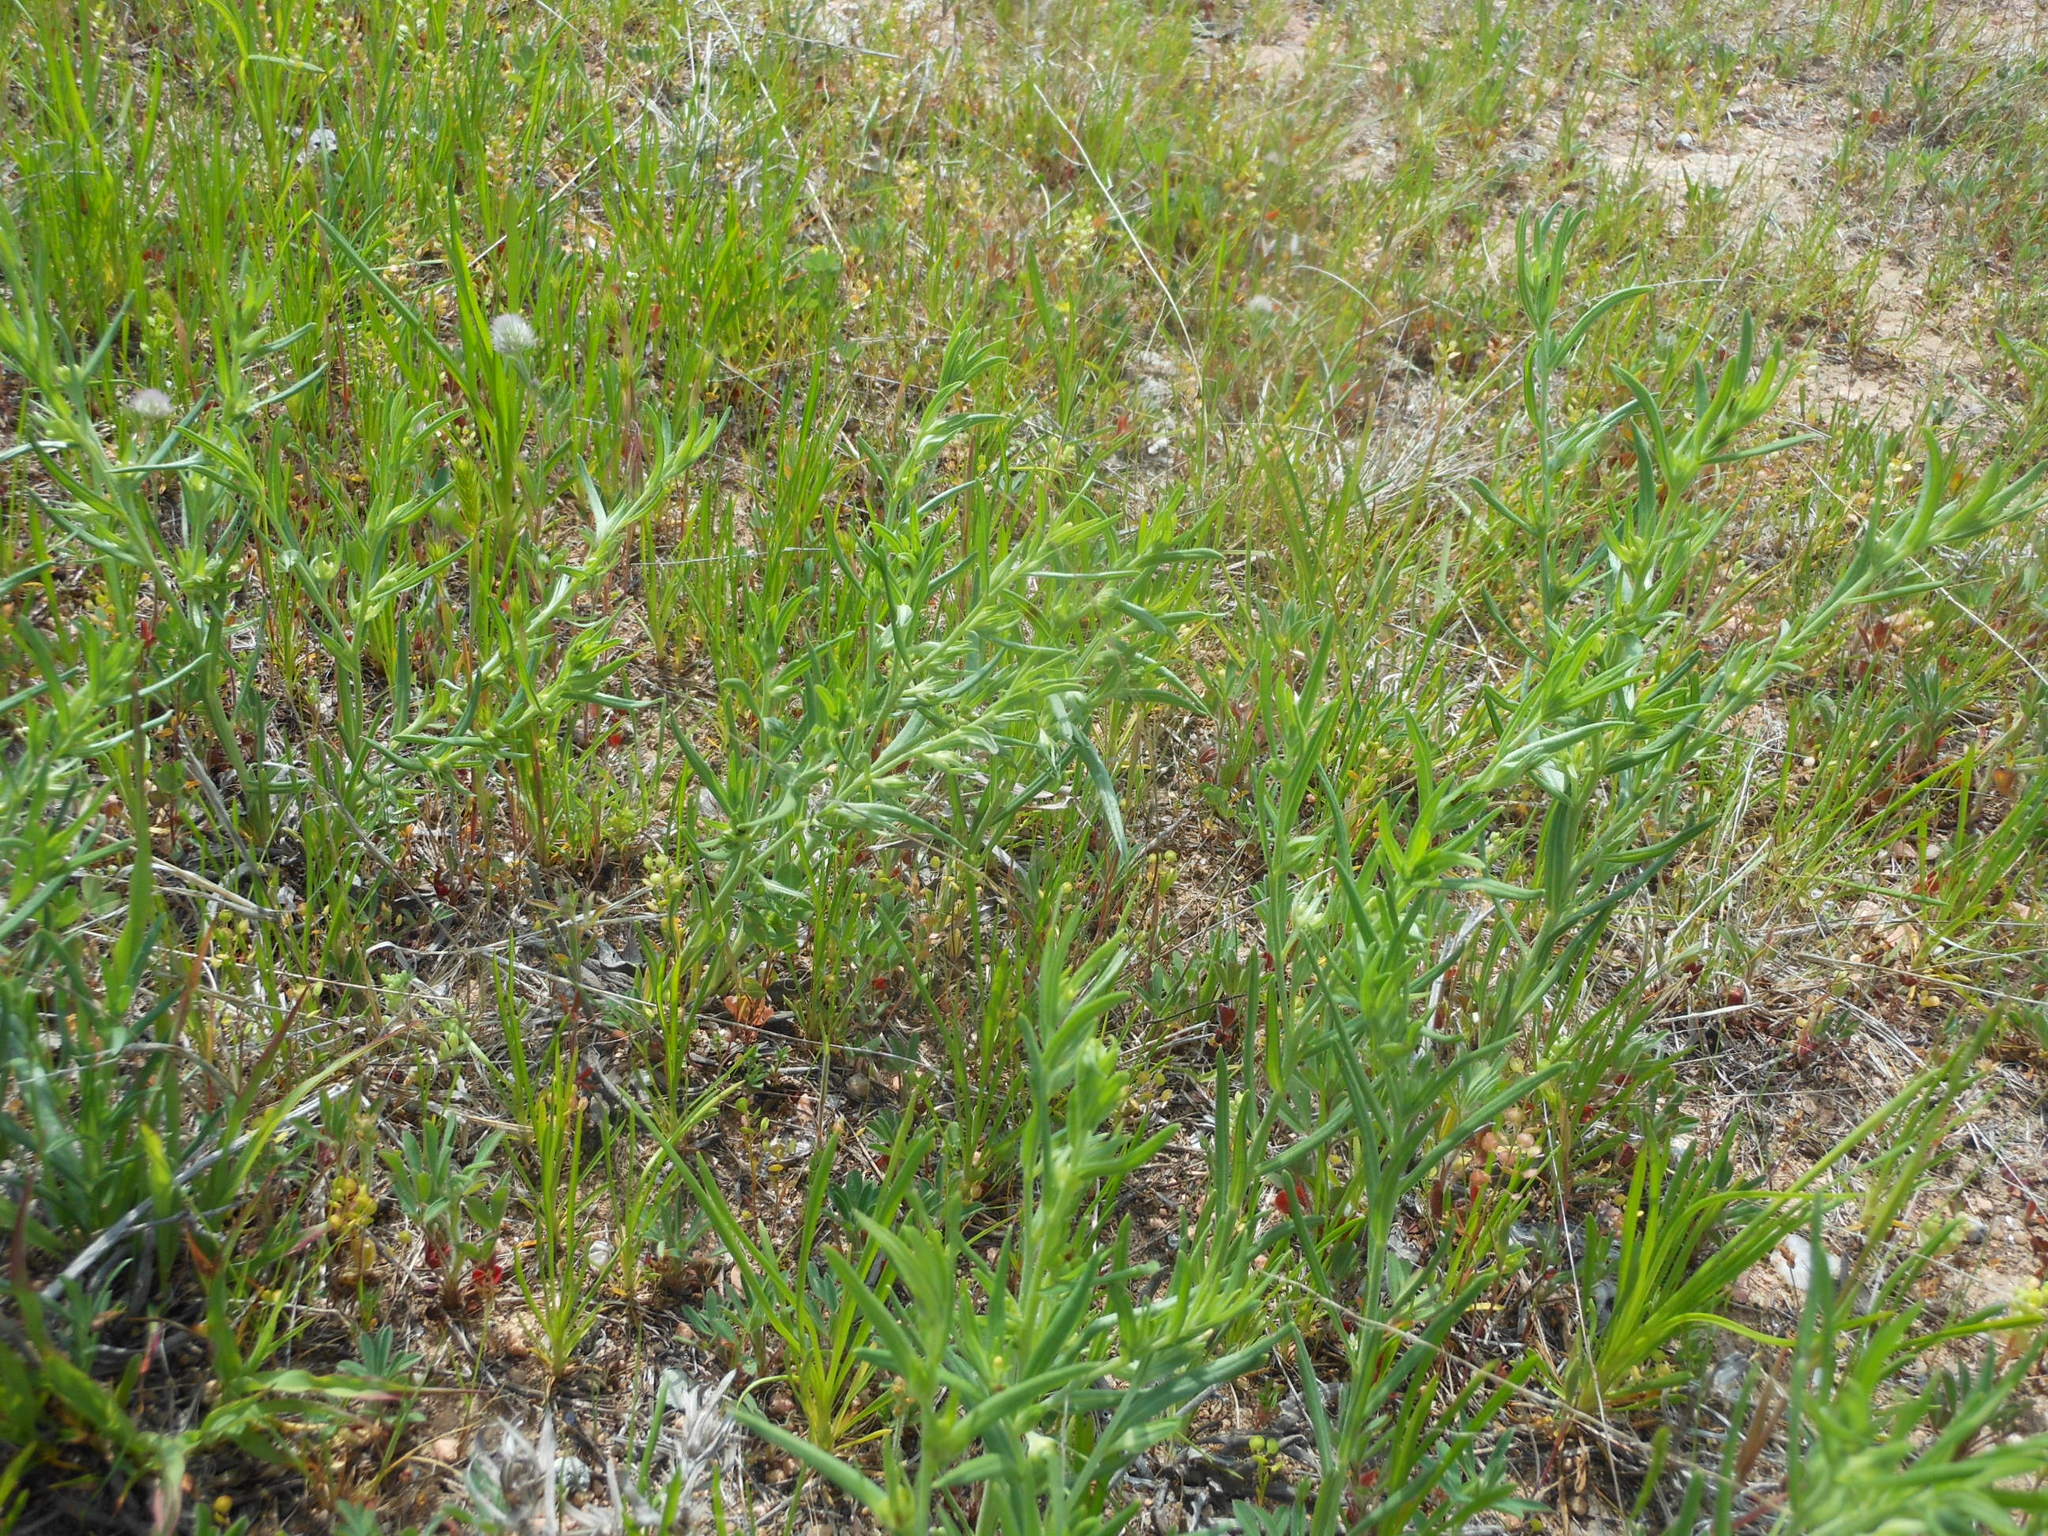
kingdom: Plantae
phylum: Tracheophyta
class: Magnoliopsida
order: Boraginales
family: Boraginaceae
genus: Buglossoides
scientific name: Buglossoides arvensis
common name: Corn gromwell
